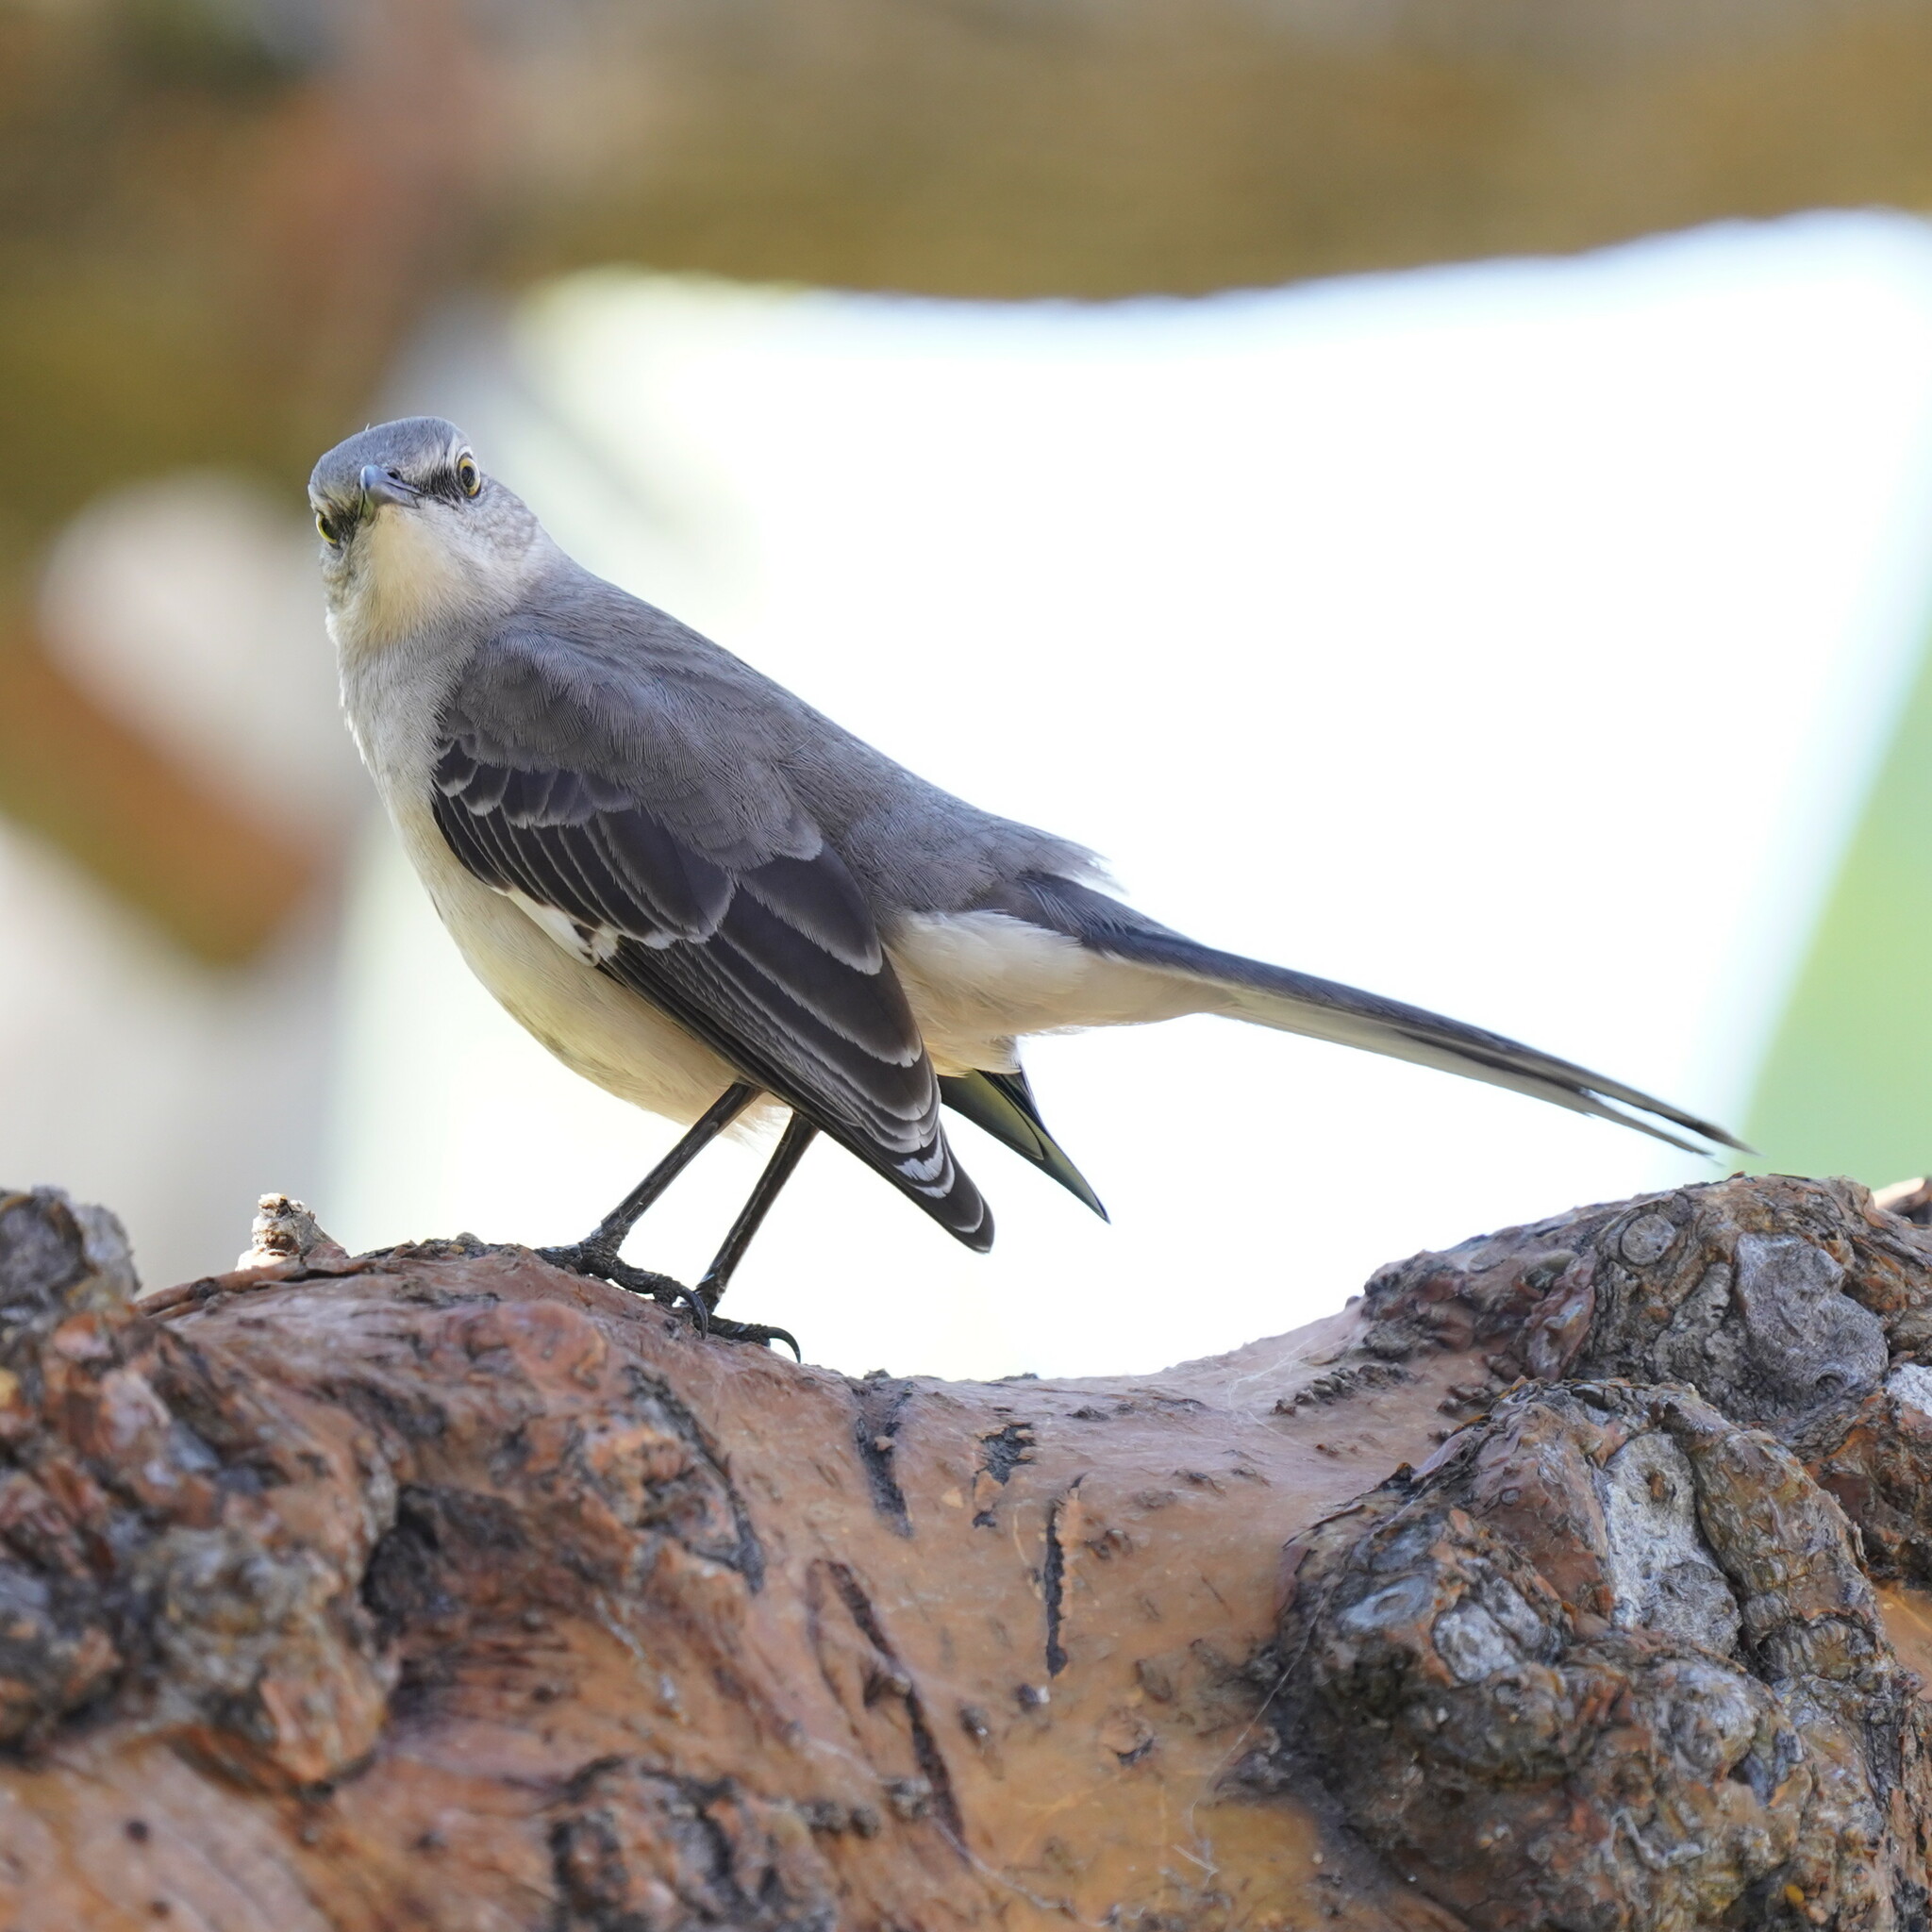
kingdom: Animalia
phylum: Chordata
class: Aves
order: Passeriformes
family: Mimidae
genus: Mimus
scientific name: Mimus polyglottos
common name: Northern mockingbird
